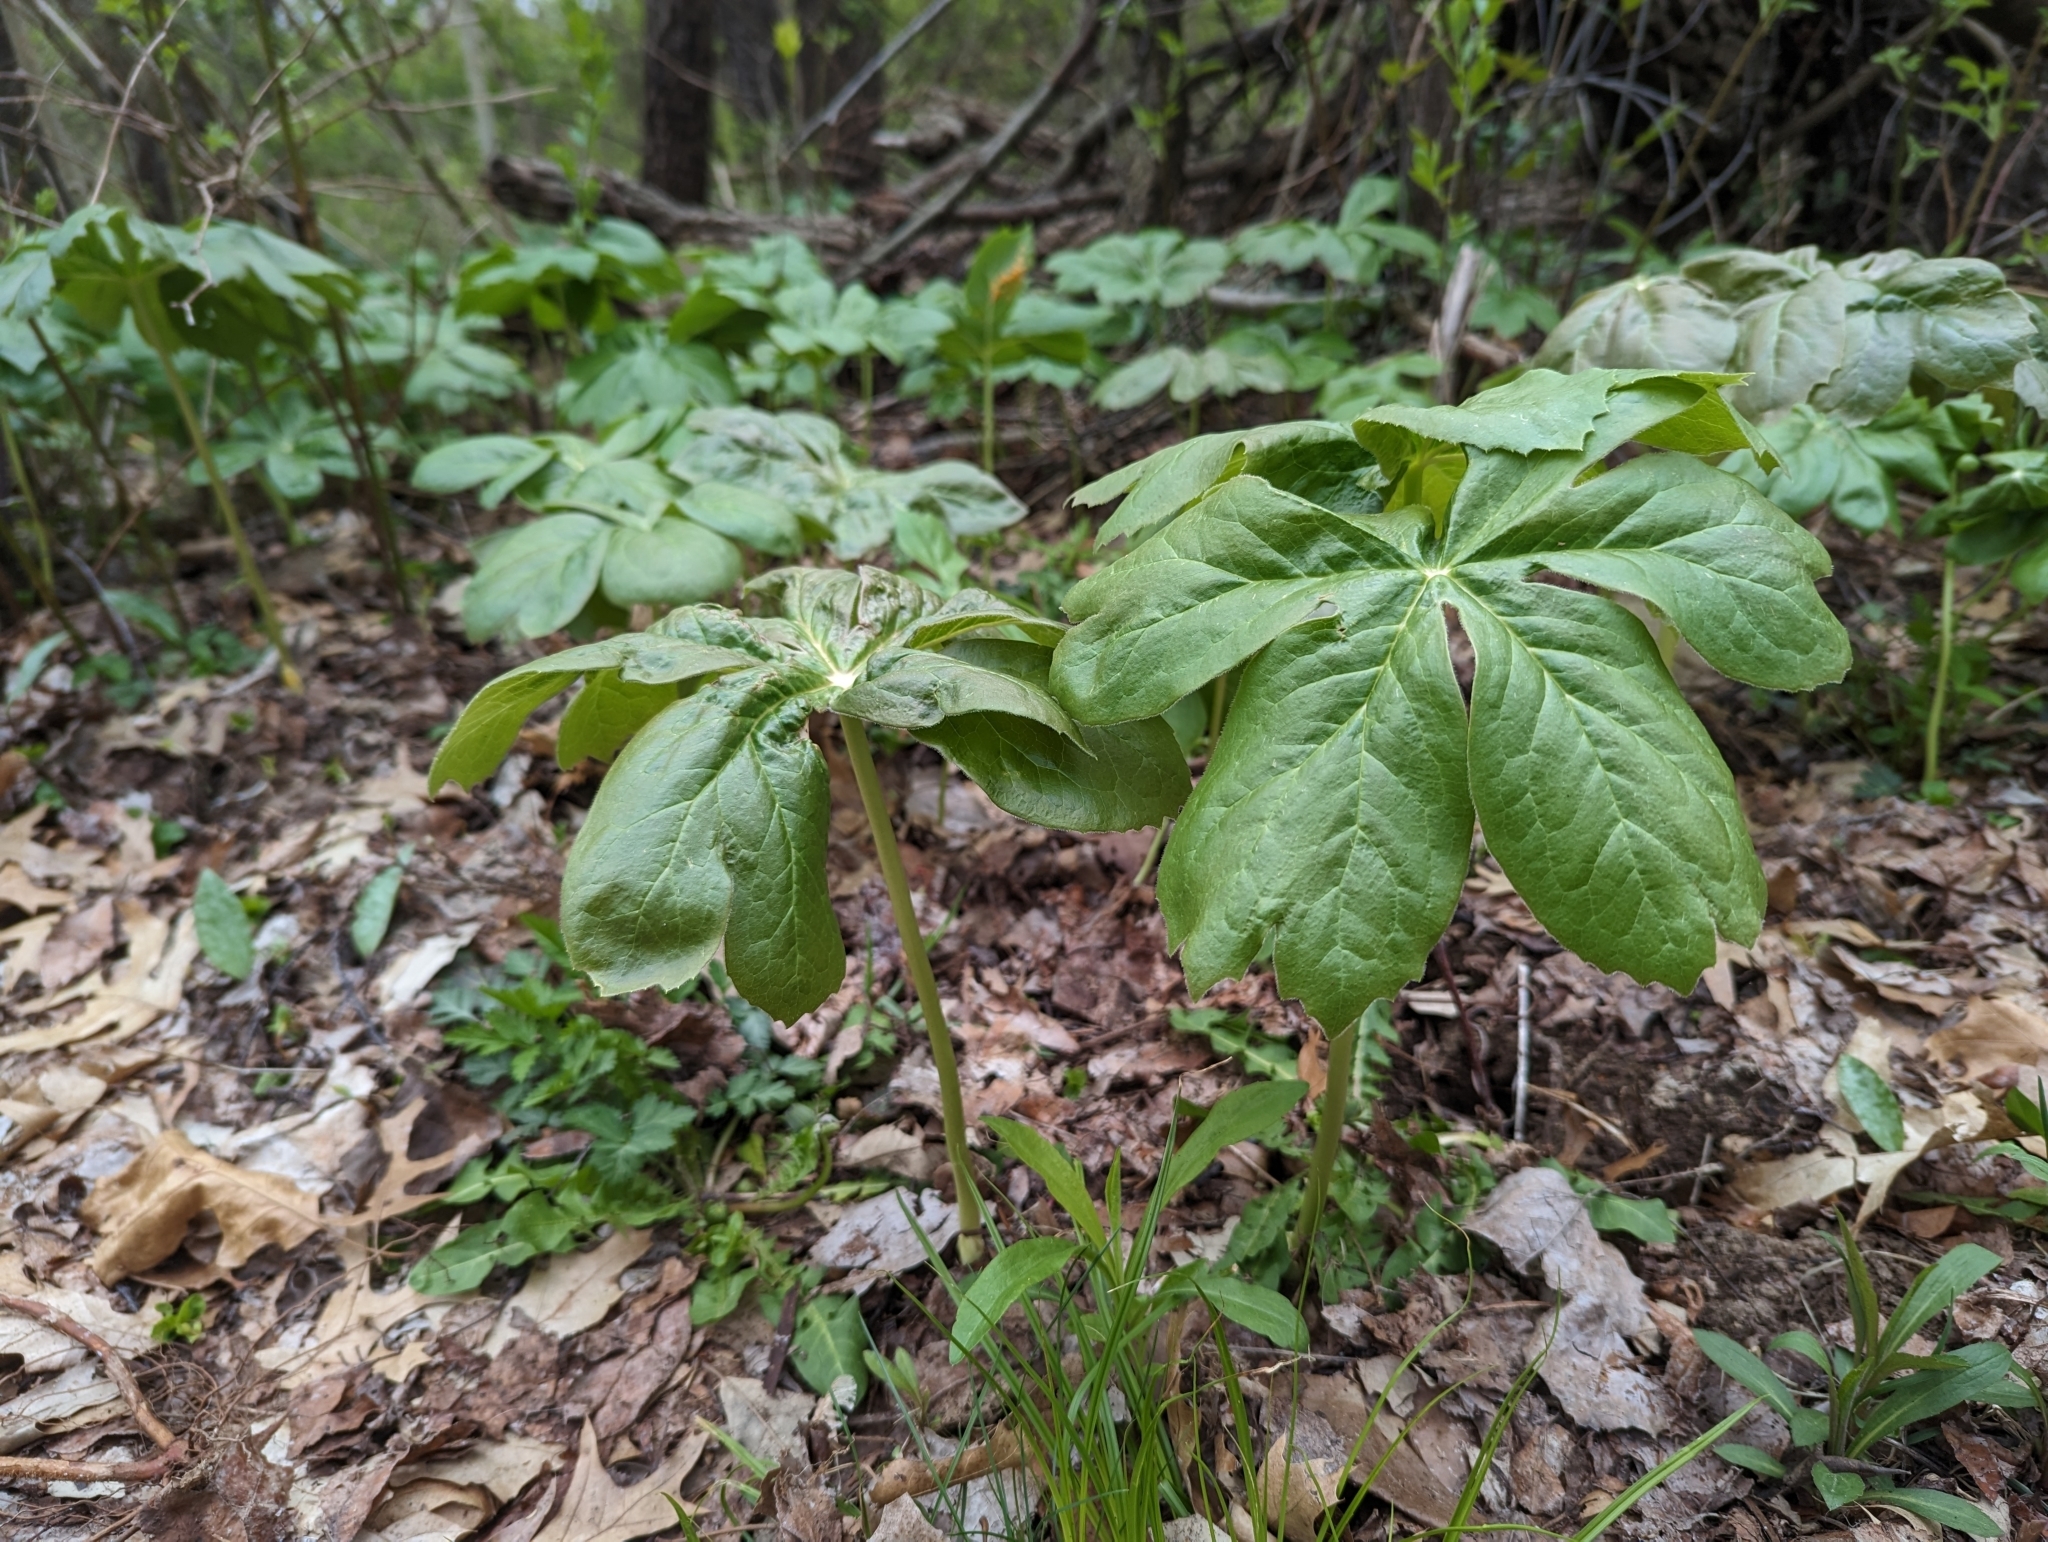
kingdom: Plantae
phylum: Tracheophyta
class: Magnoliopsida
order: Ranunculales
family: Berberidaceae
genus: Podophyllum
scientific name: Podophyllum peltatum
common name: Wild mandrake
